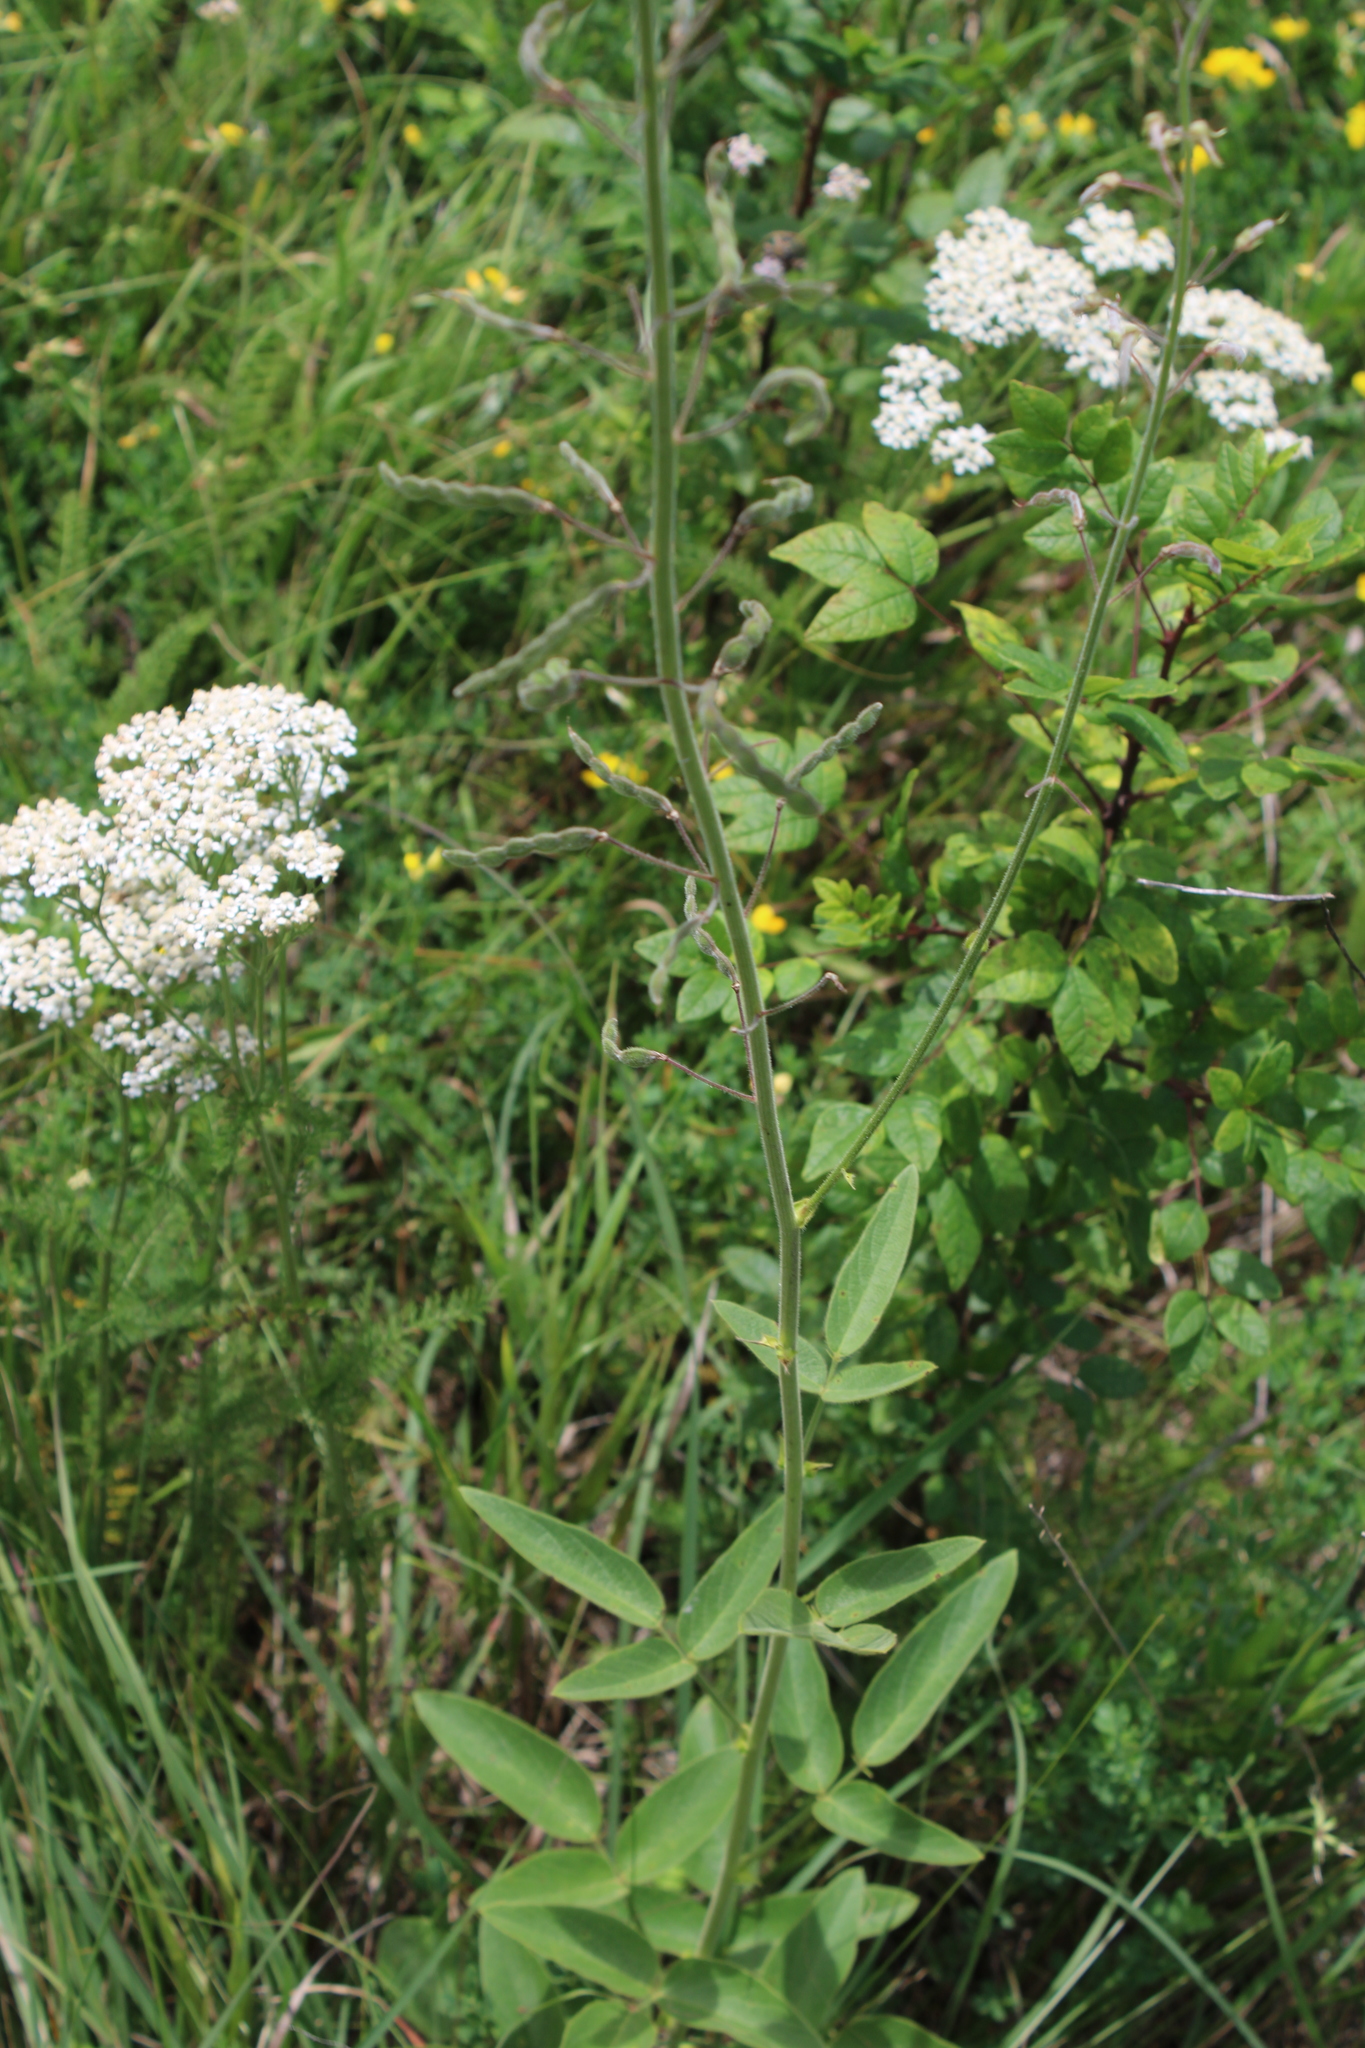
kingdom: Plantae
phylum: Tracheophyta
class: Magnoliopsida
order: Fabales
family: Fabaceae
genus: Desmodium
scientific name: Desmodium illinoense
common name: Illinois tick-clover
